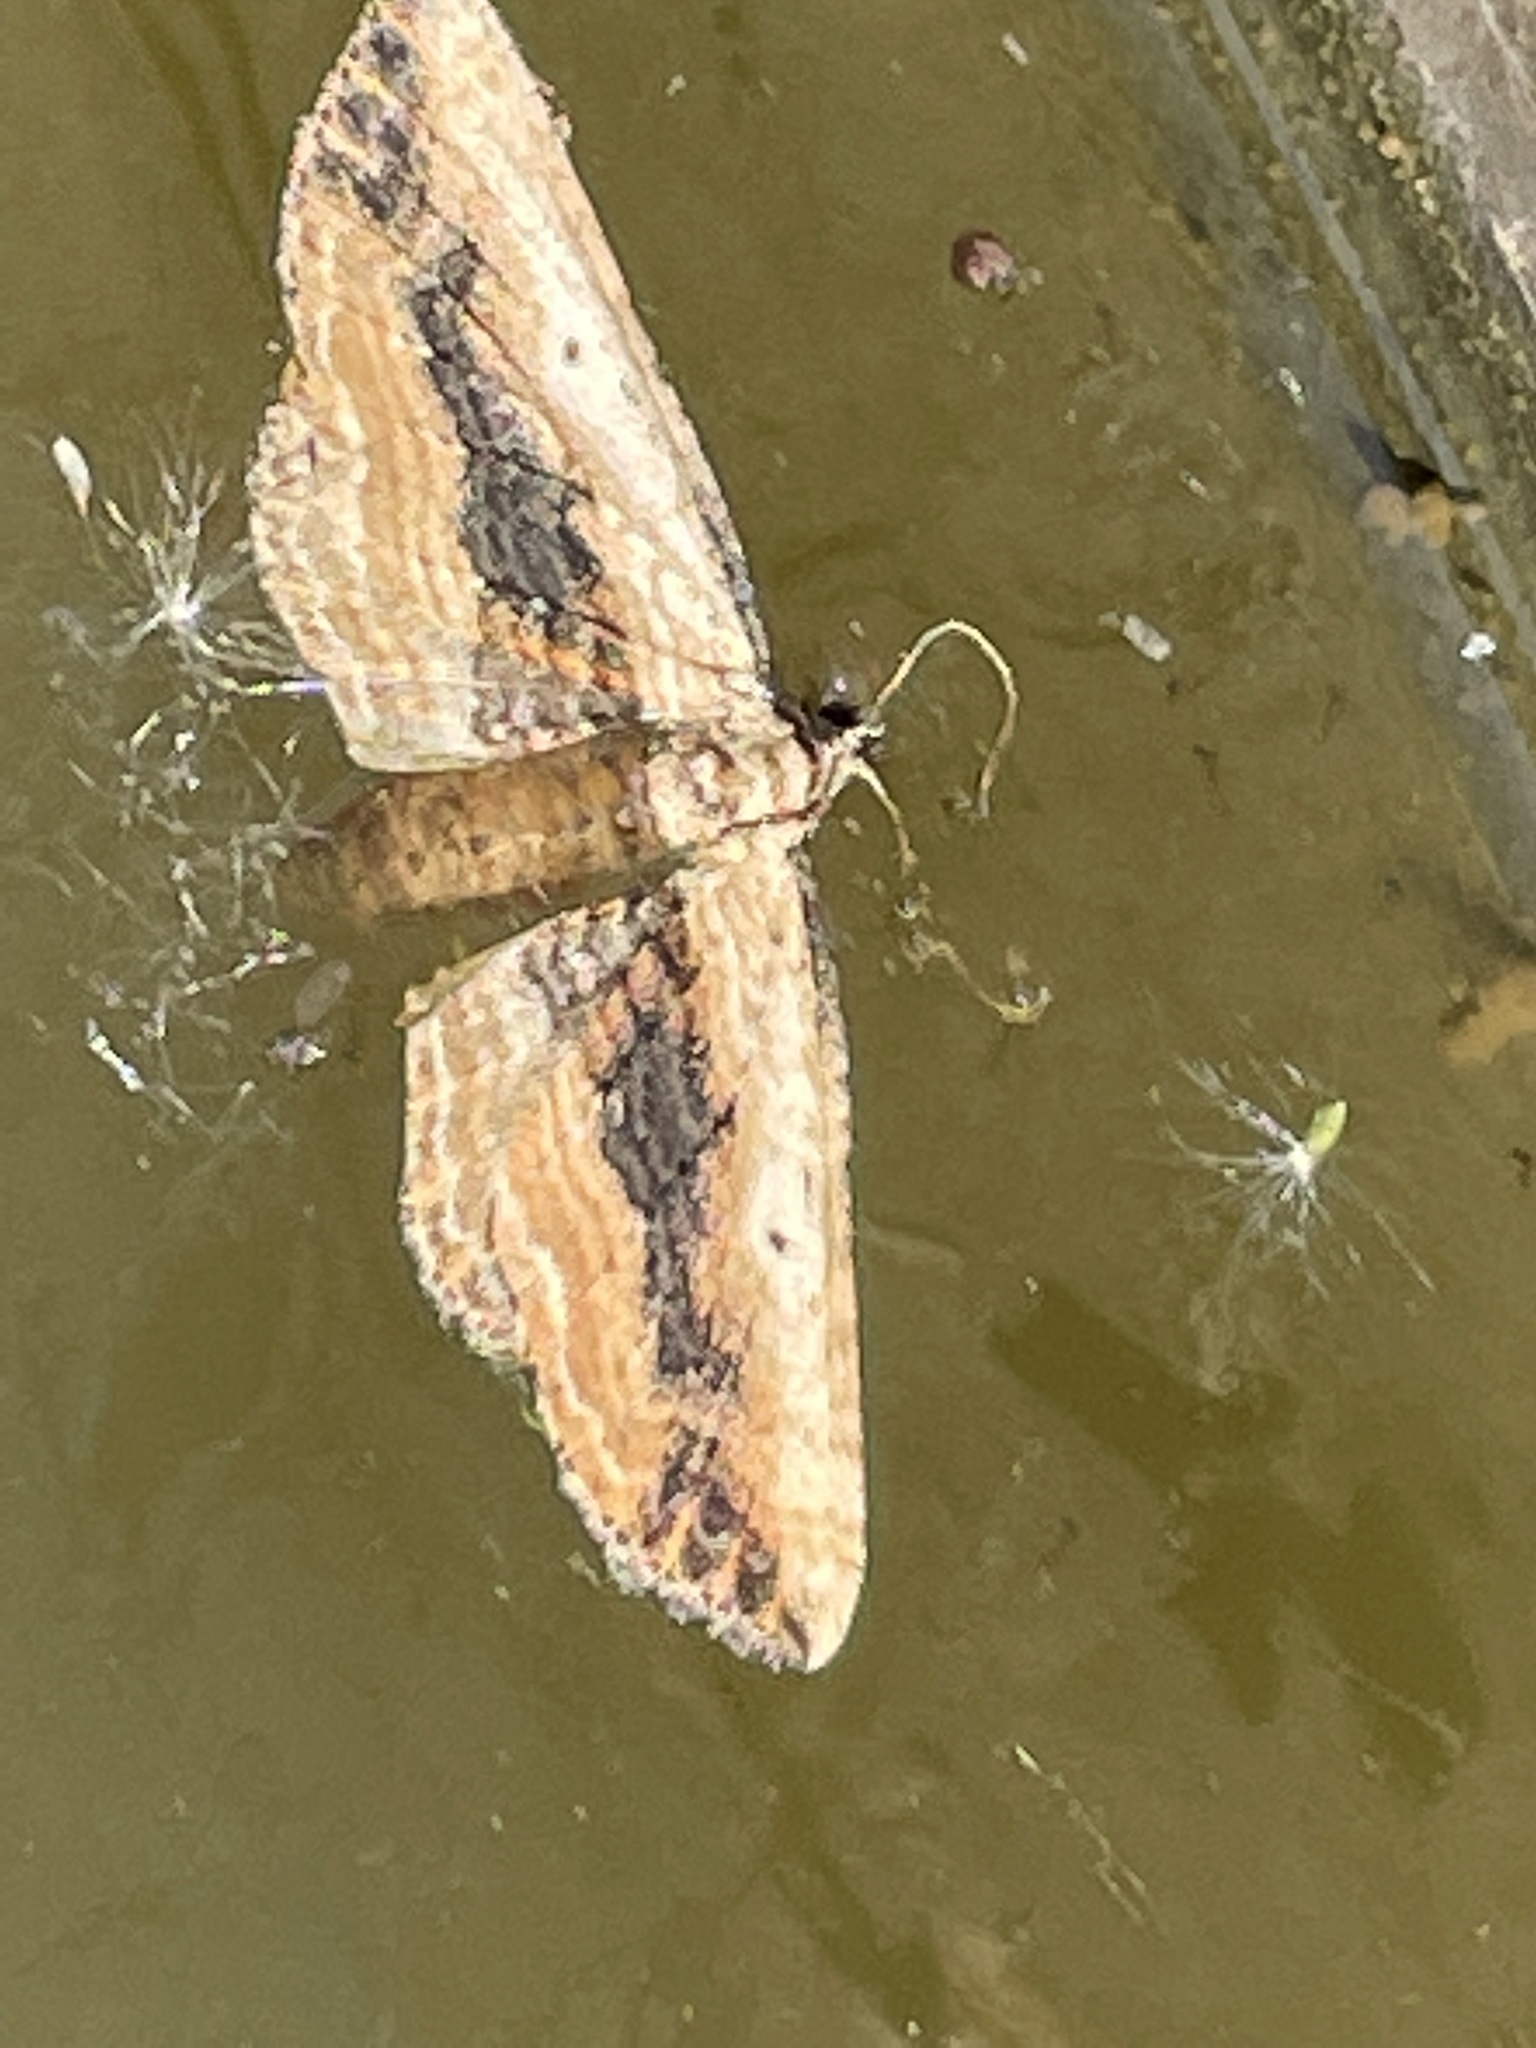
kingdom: Animalia
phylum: Arthropoda
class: Insecta
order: Lepidoptera
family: Geometridae
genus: Horisme
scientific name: Horisme vitalbata
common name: Small waved umber
